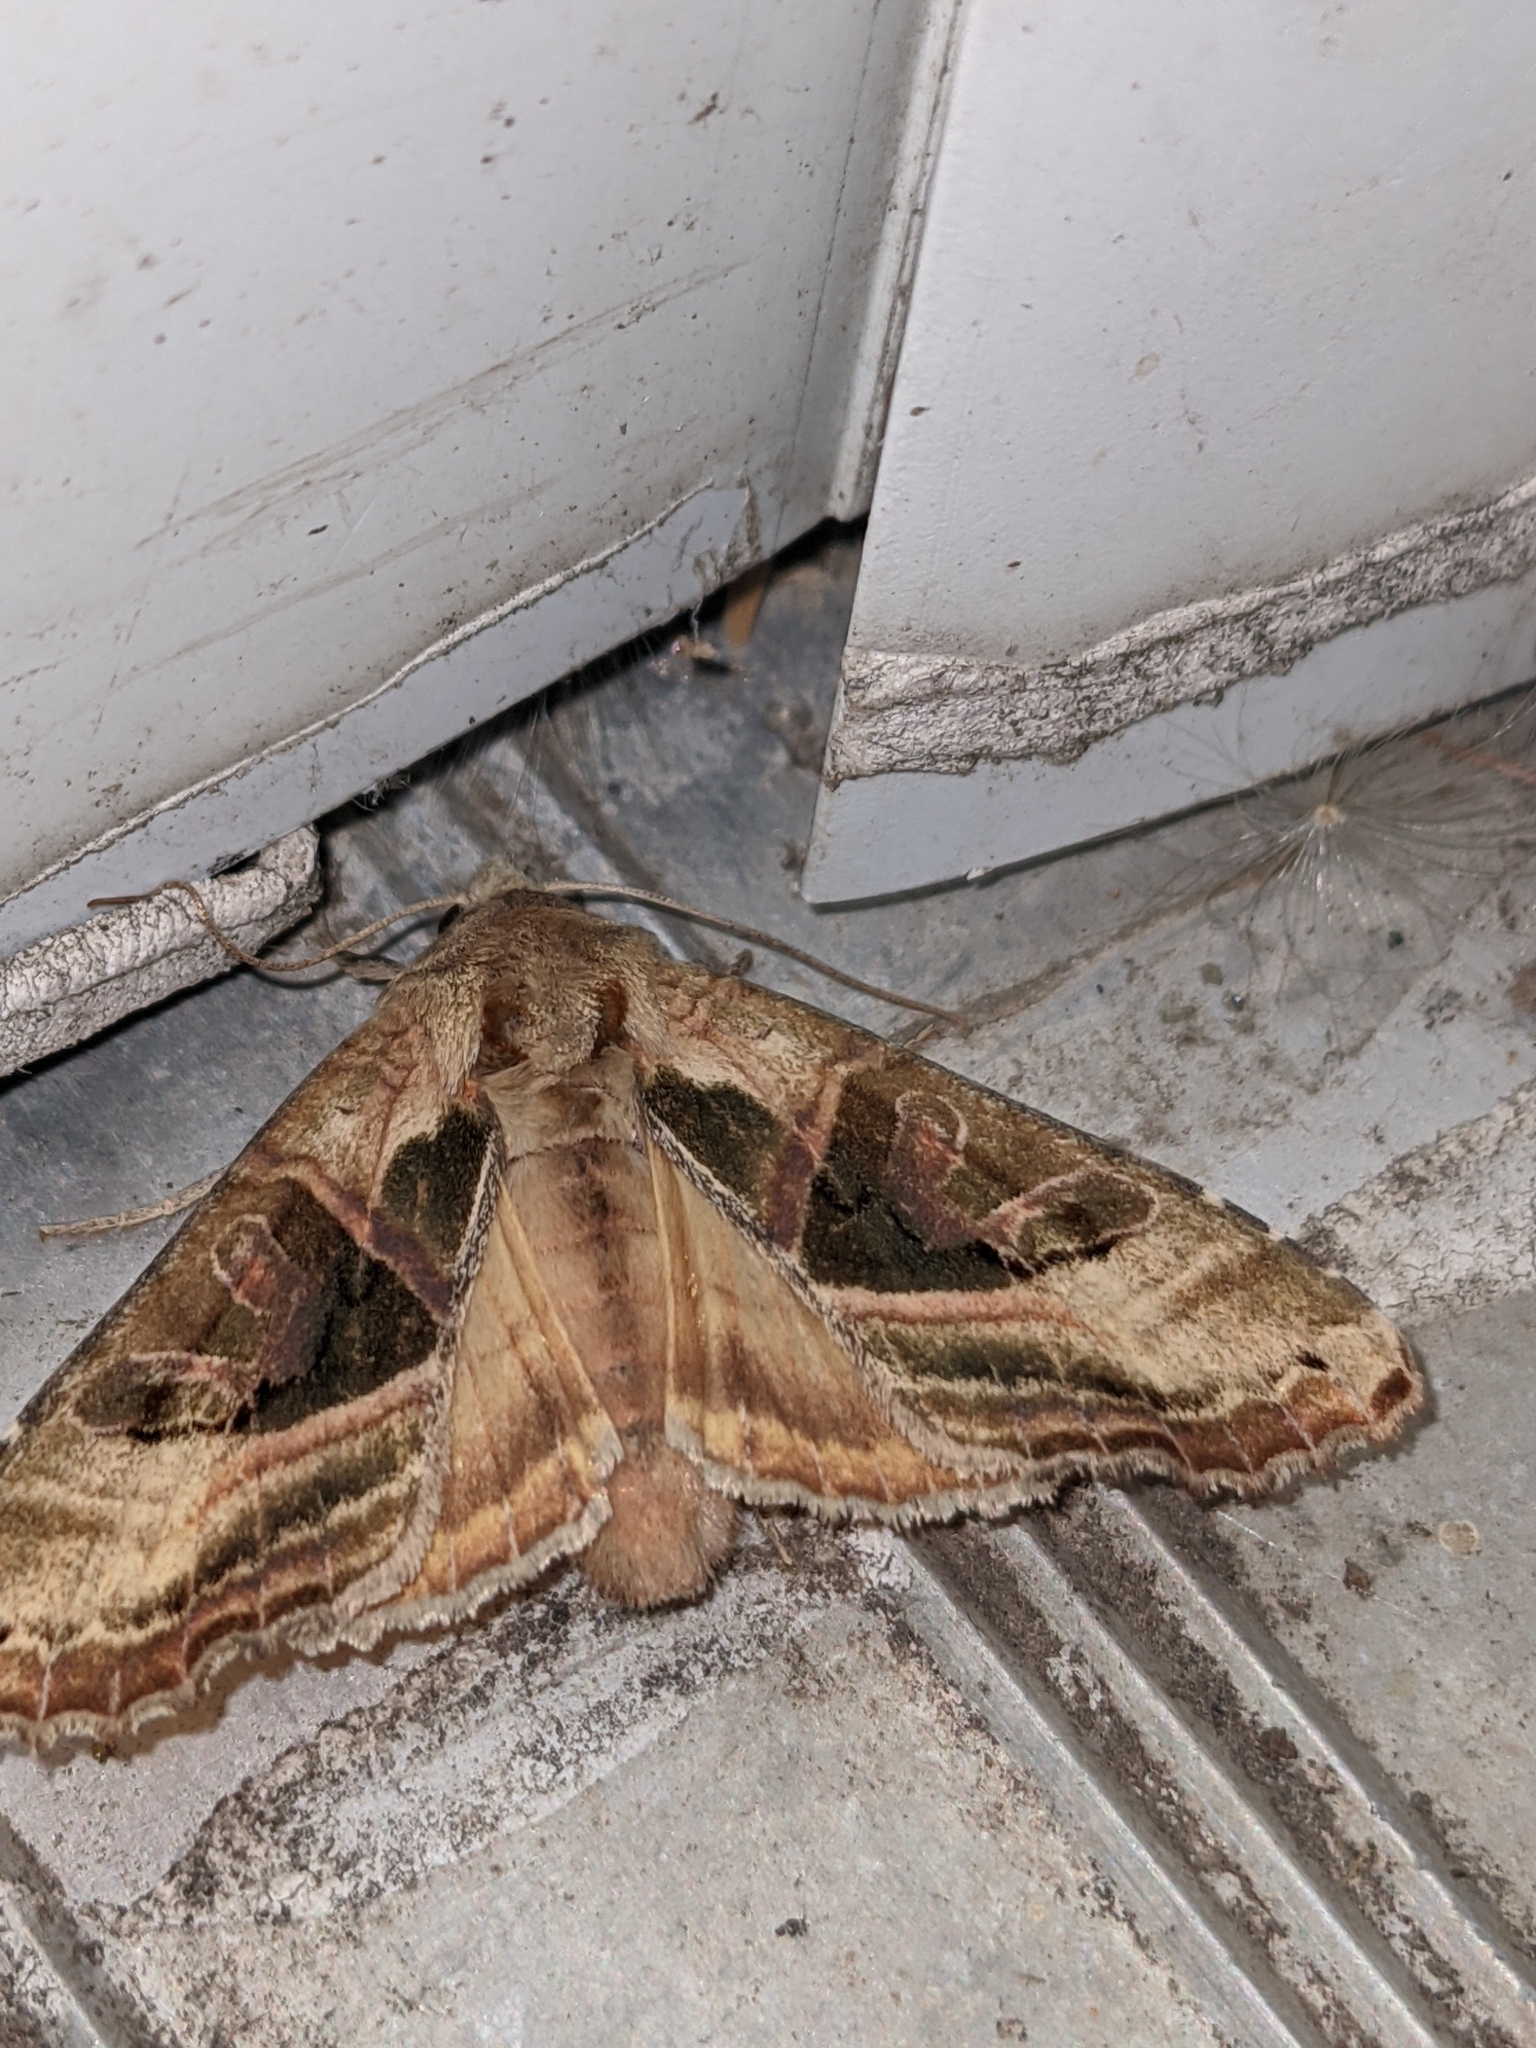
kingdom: Animalia
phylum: Arthropoda
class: Insecta
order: Lepidoptera
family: Noctuidae
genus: Phlogophora
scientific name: Phlogophora iris
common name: Olive angle shades
